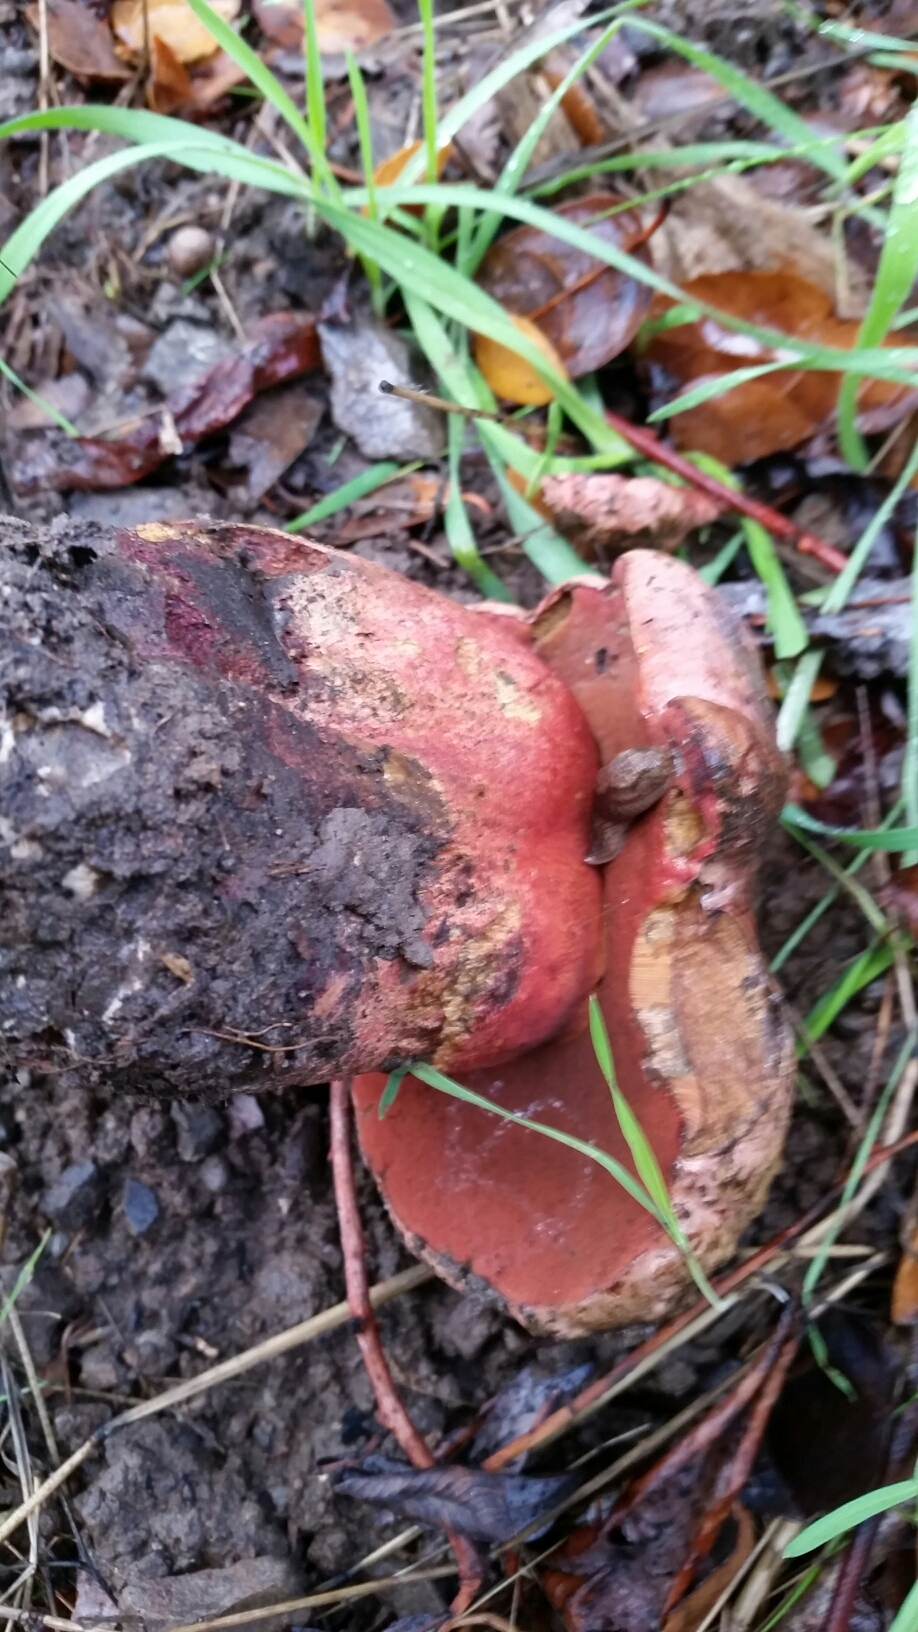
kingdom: Fungi
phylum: Basidiomycota
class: Agaricomycetes
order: Boletales
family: Boletaceae
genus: Suillellus
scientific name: Suillellus amygdalinus
